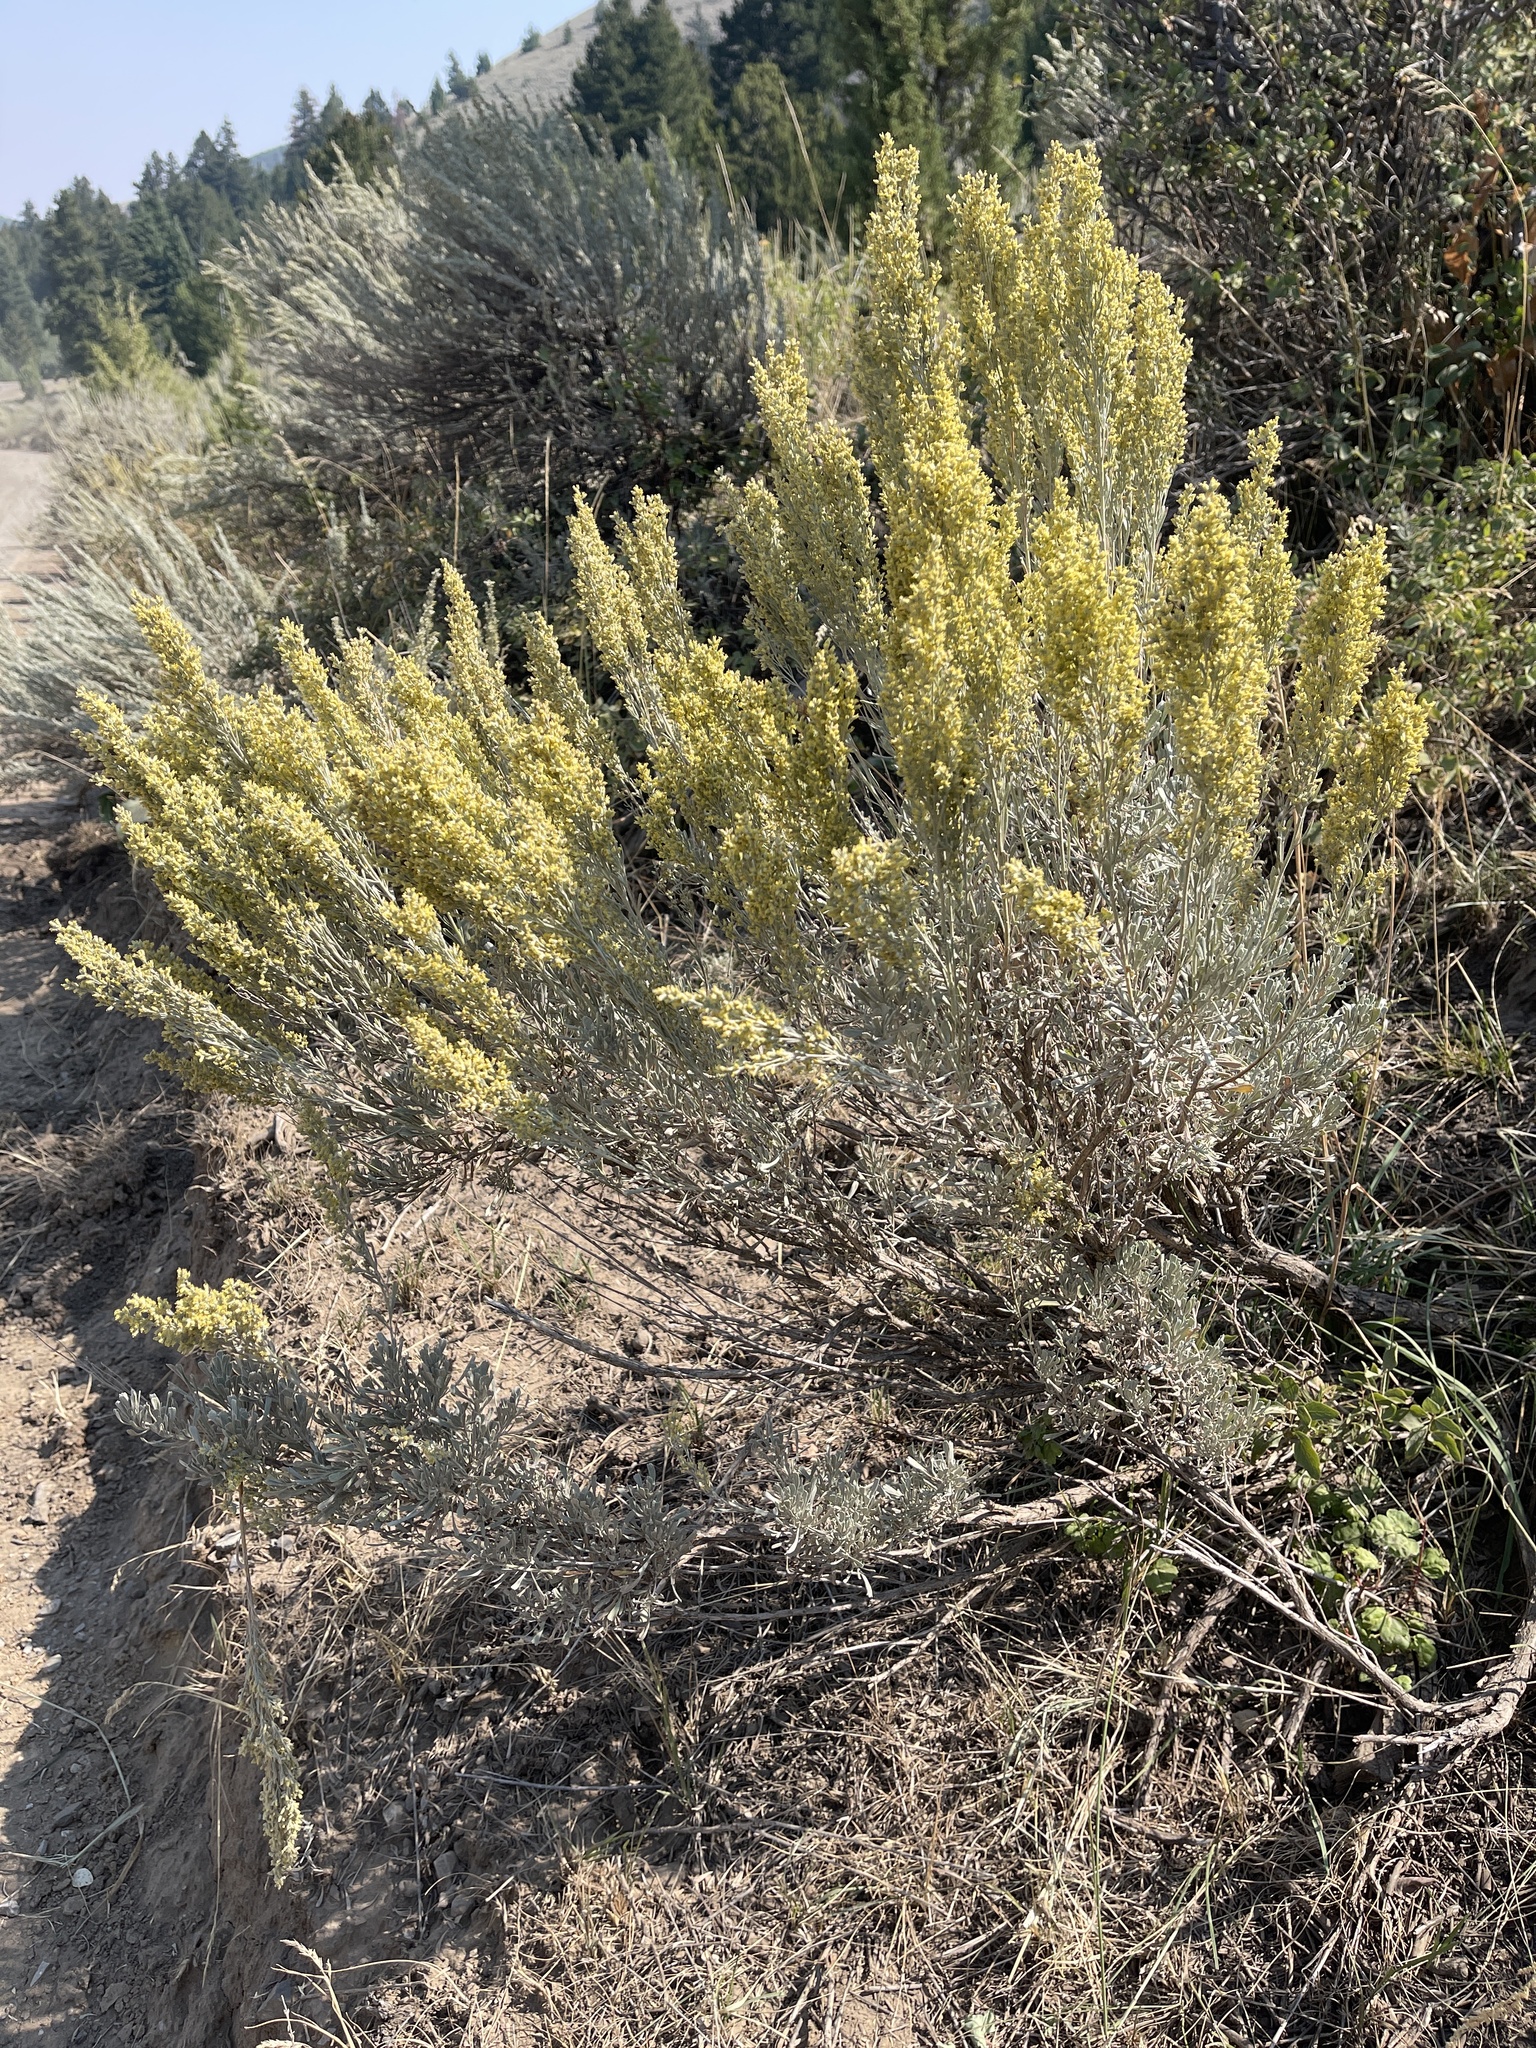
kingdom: Plantae
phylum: Tracheophyta
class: Magnoliopsida
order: Asterales
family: Asteraceae
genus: Artemisia
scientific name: Artemisia tridentata
